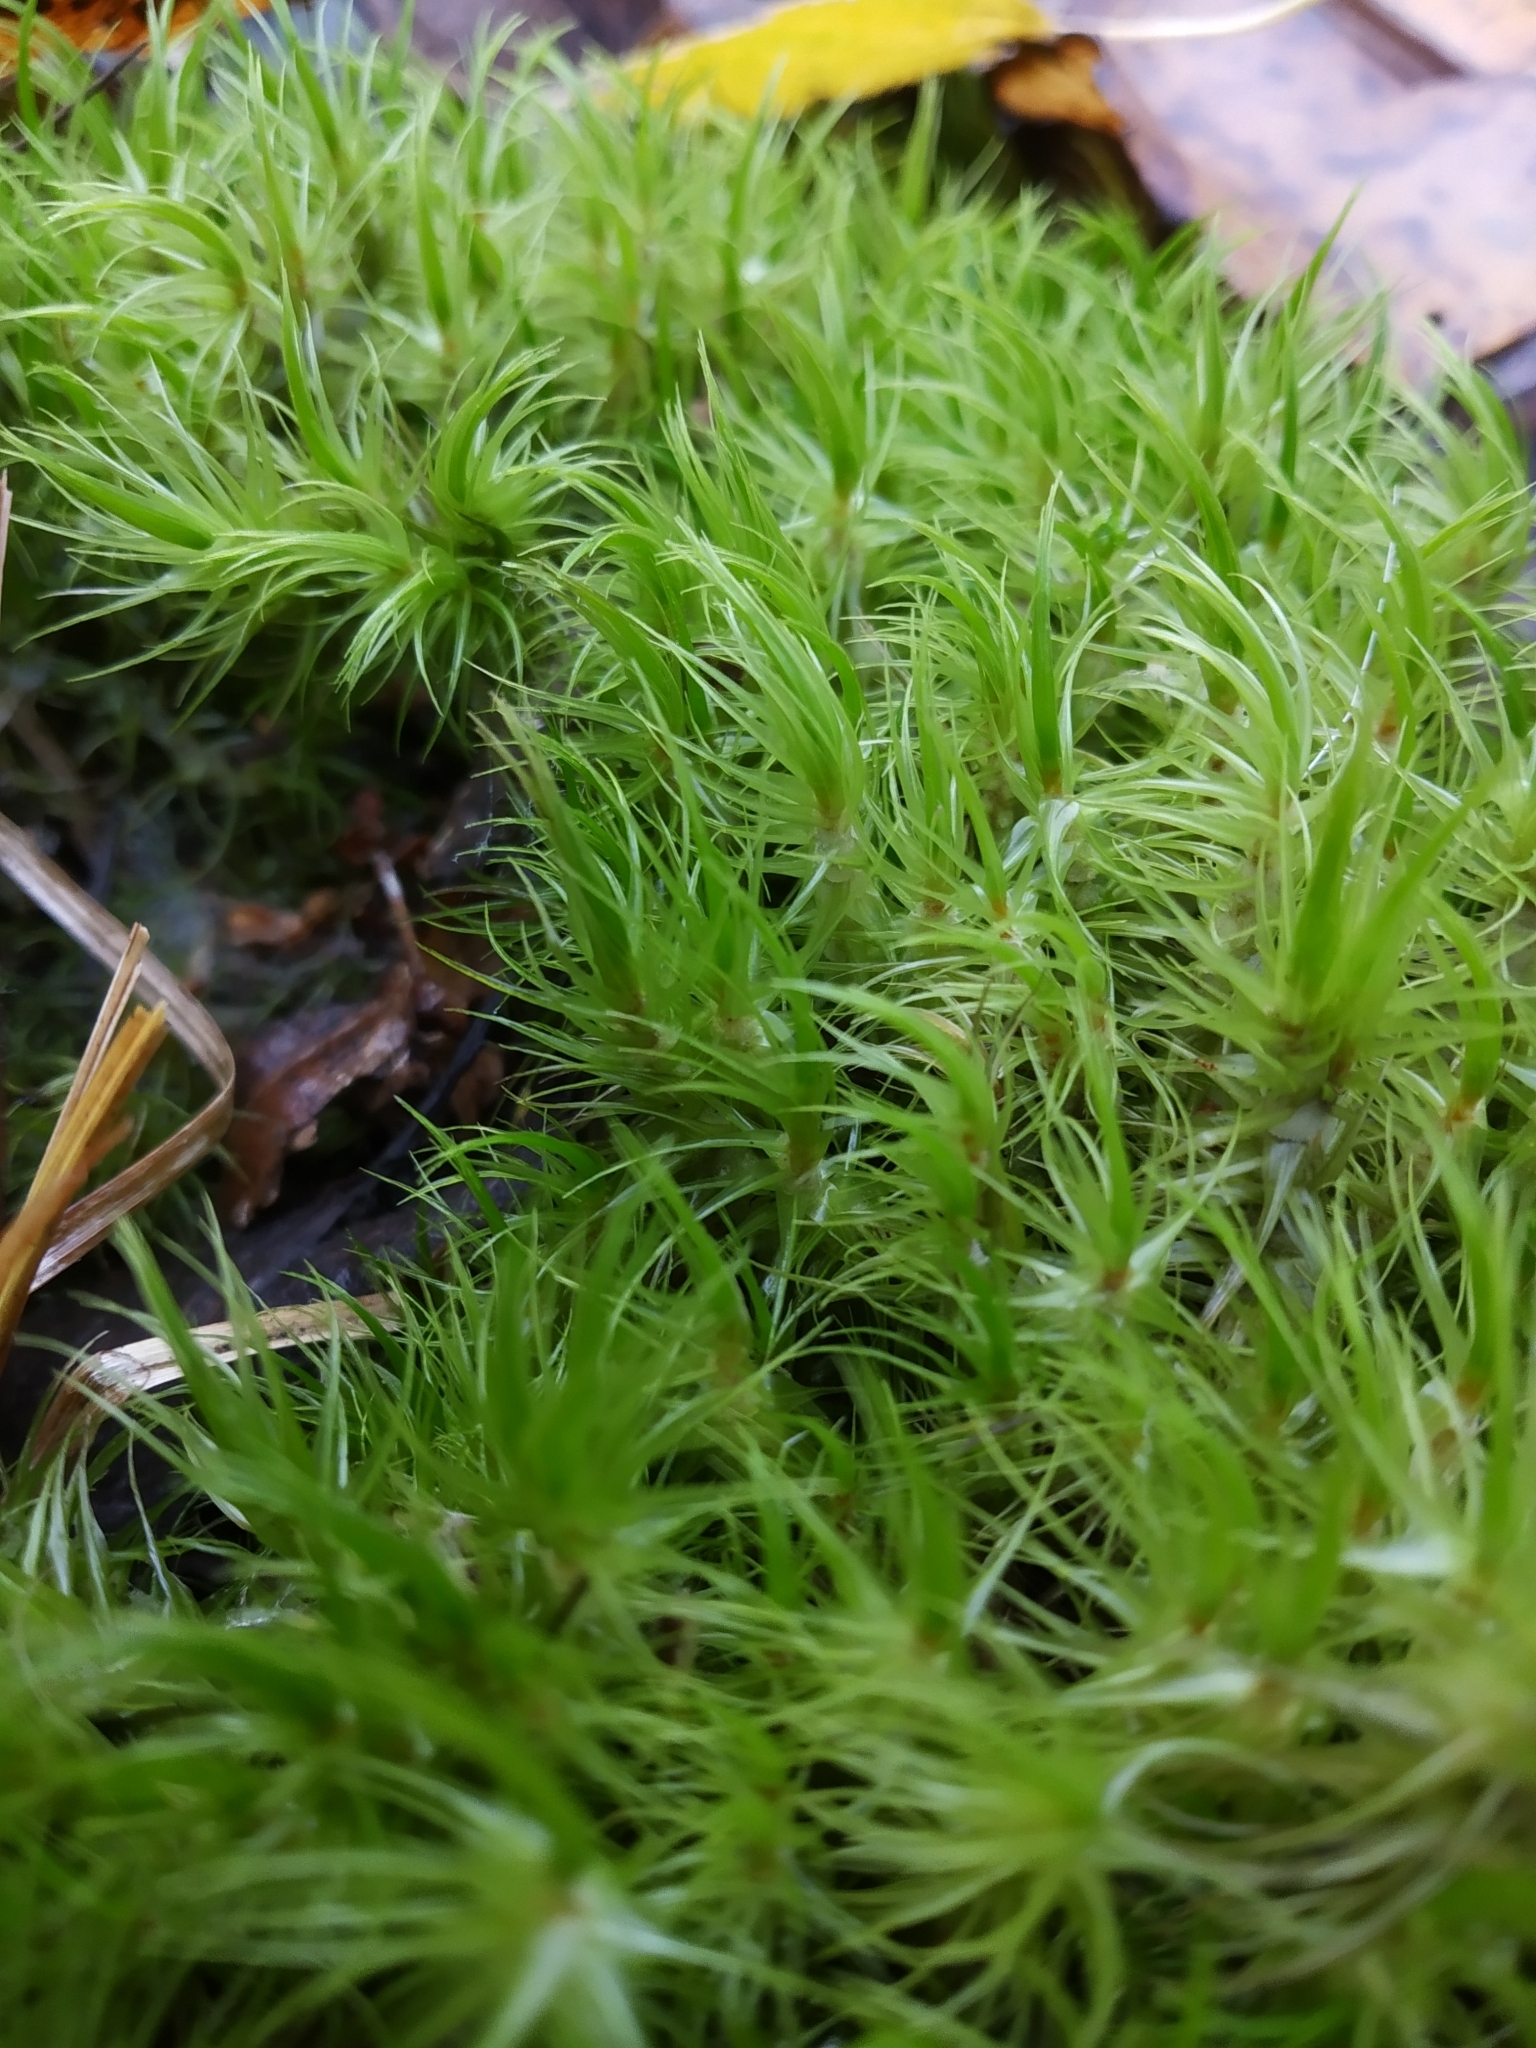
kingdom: Plantae
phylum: Bryophyta
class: Bryopsida
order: Dicranales
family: Dicranaceae
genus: Dicranum
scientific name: Dicranum scoparium
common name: Broom fork-moss
